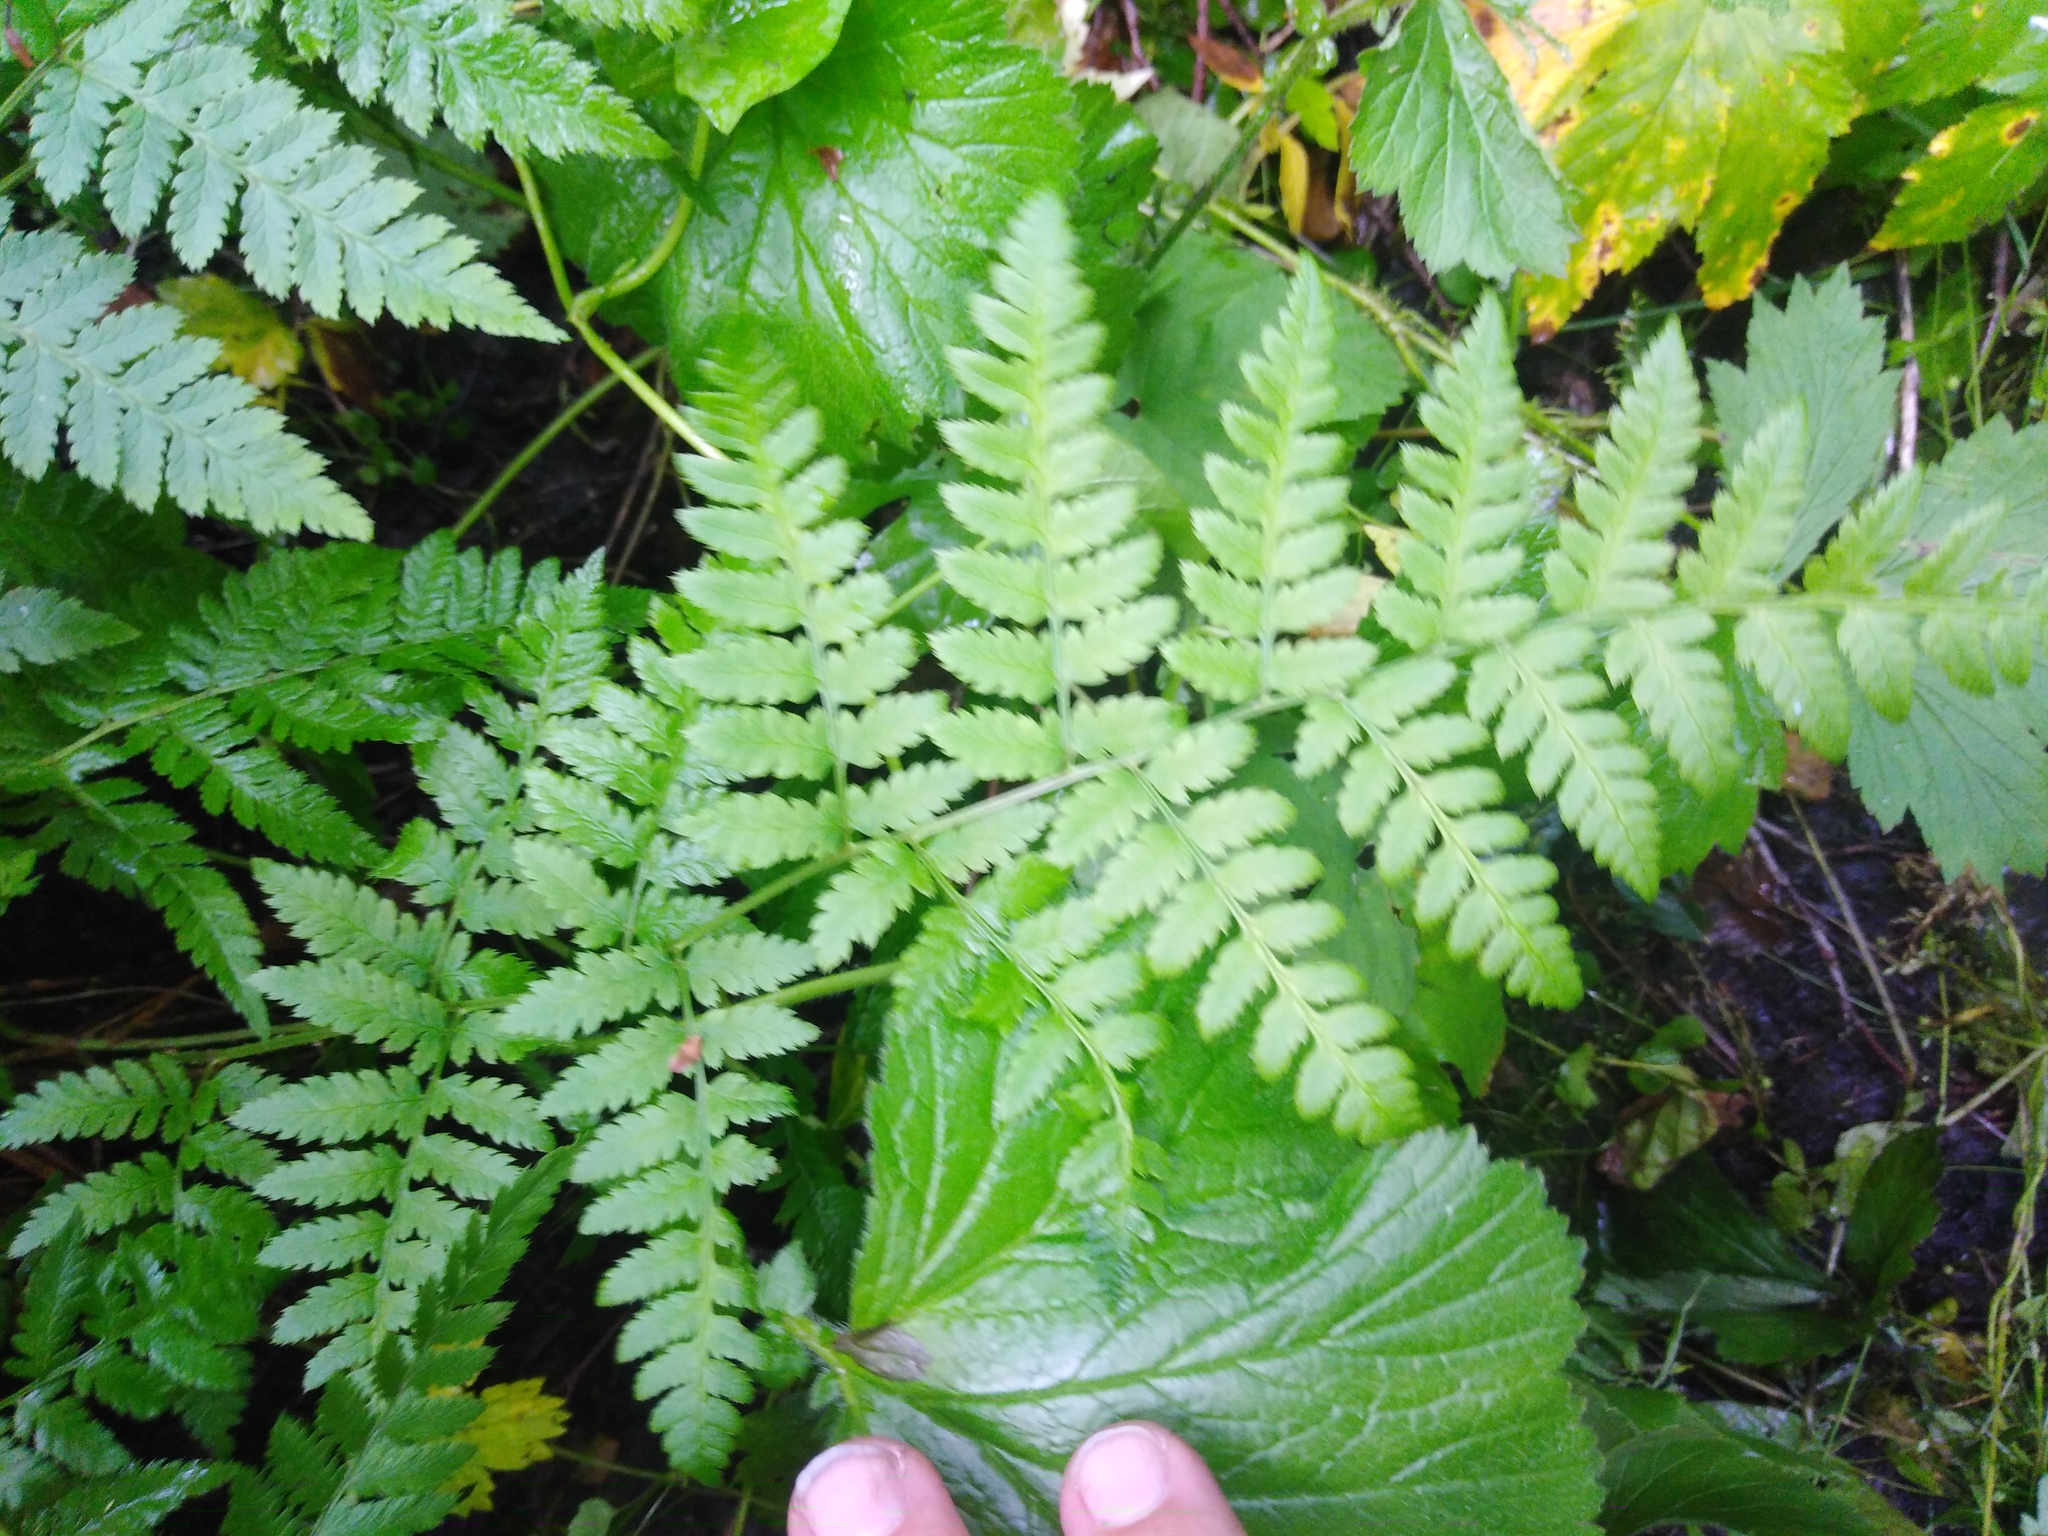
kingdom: Plantae
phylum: Tracheophyta
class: Polypodiopsida
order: Polypodiales
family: Dryopteridaceae
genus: Dryopteris
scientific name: Dryopteris carthusiana
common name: Narrow buckler-fern
